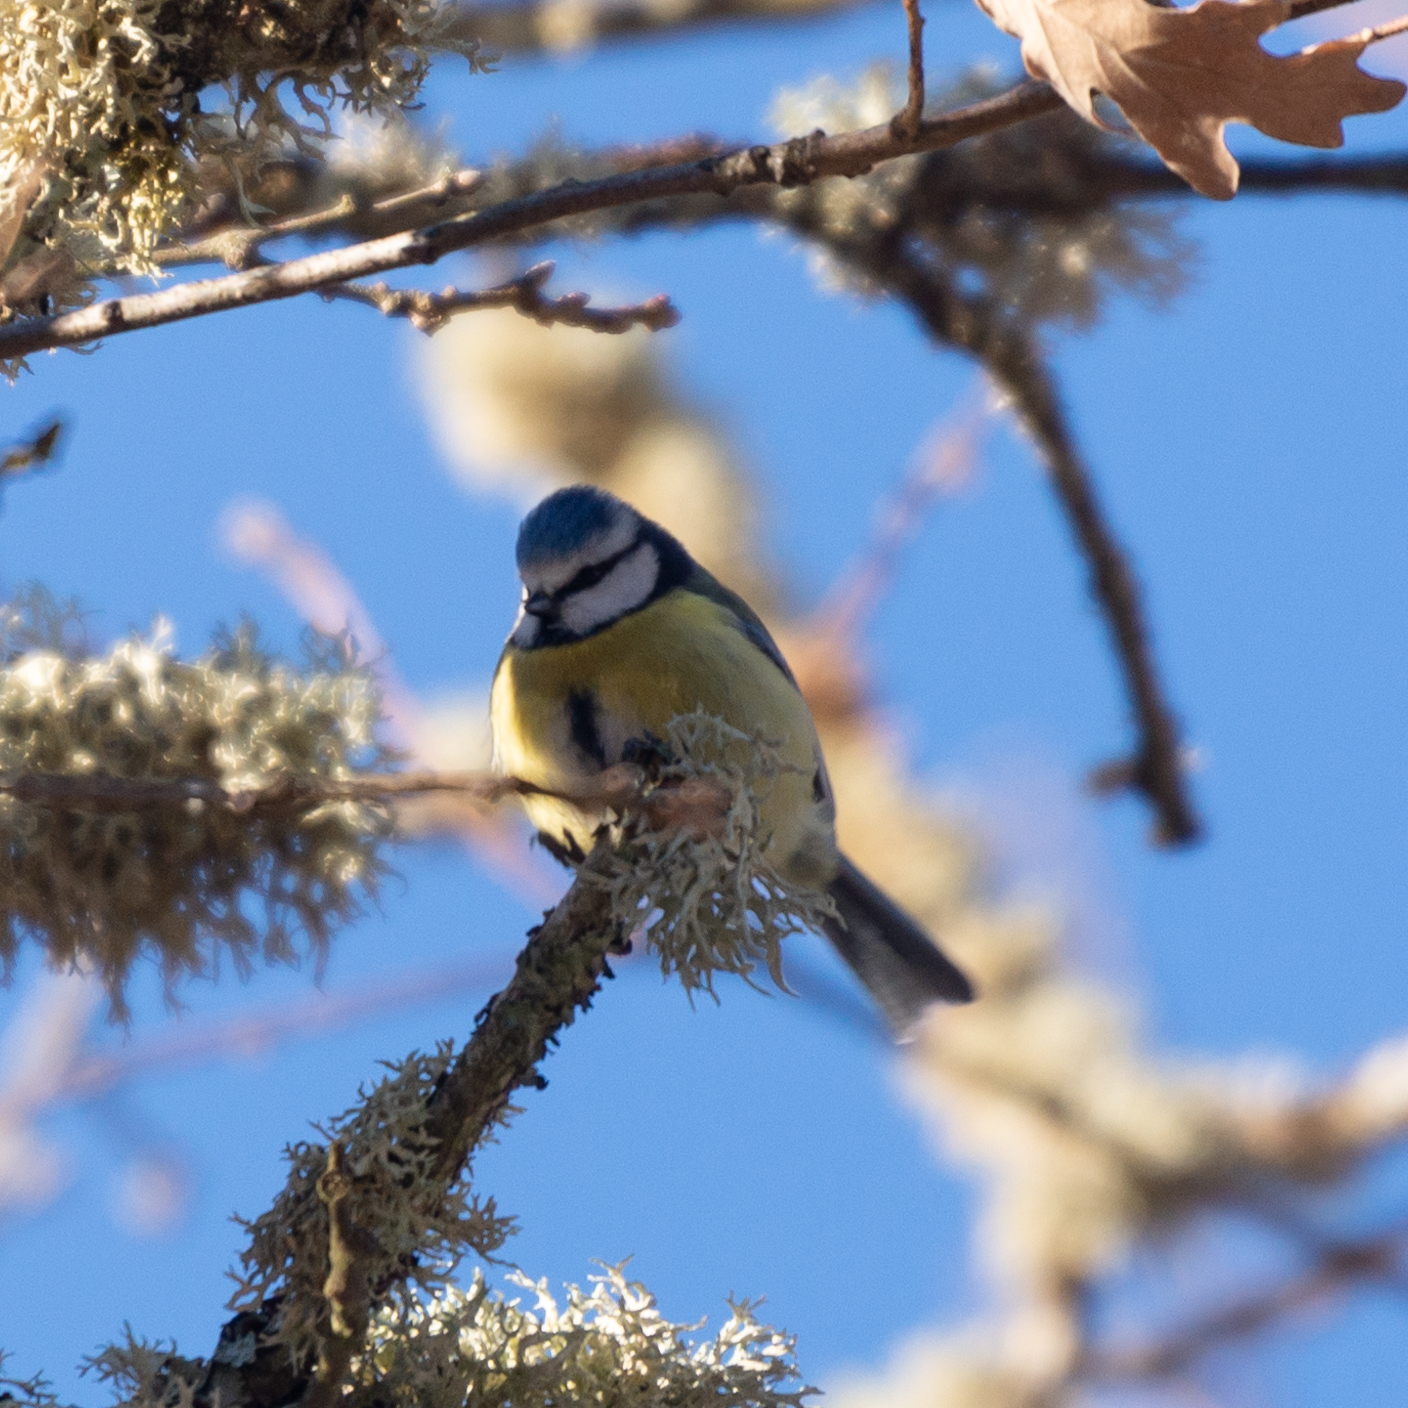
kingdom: Animalia
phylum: Chordata
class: Aves
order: Passeriformes
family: Paridae
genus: Cyanistes
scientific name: Cyanistes caeruleus
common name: Eurasian blue tit
